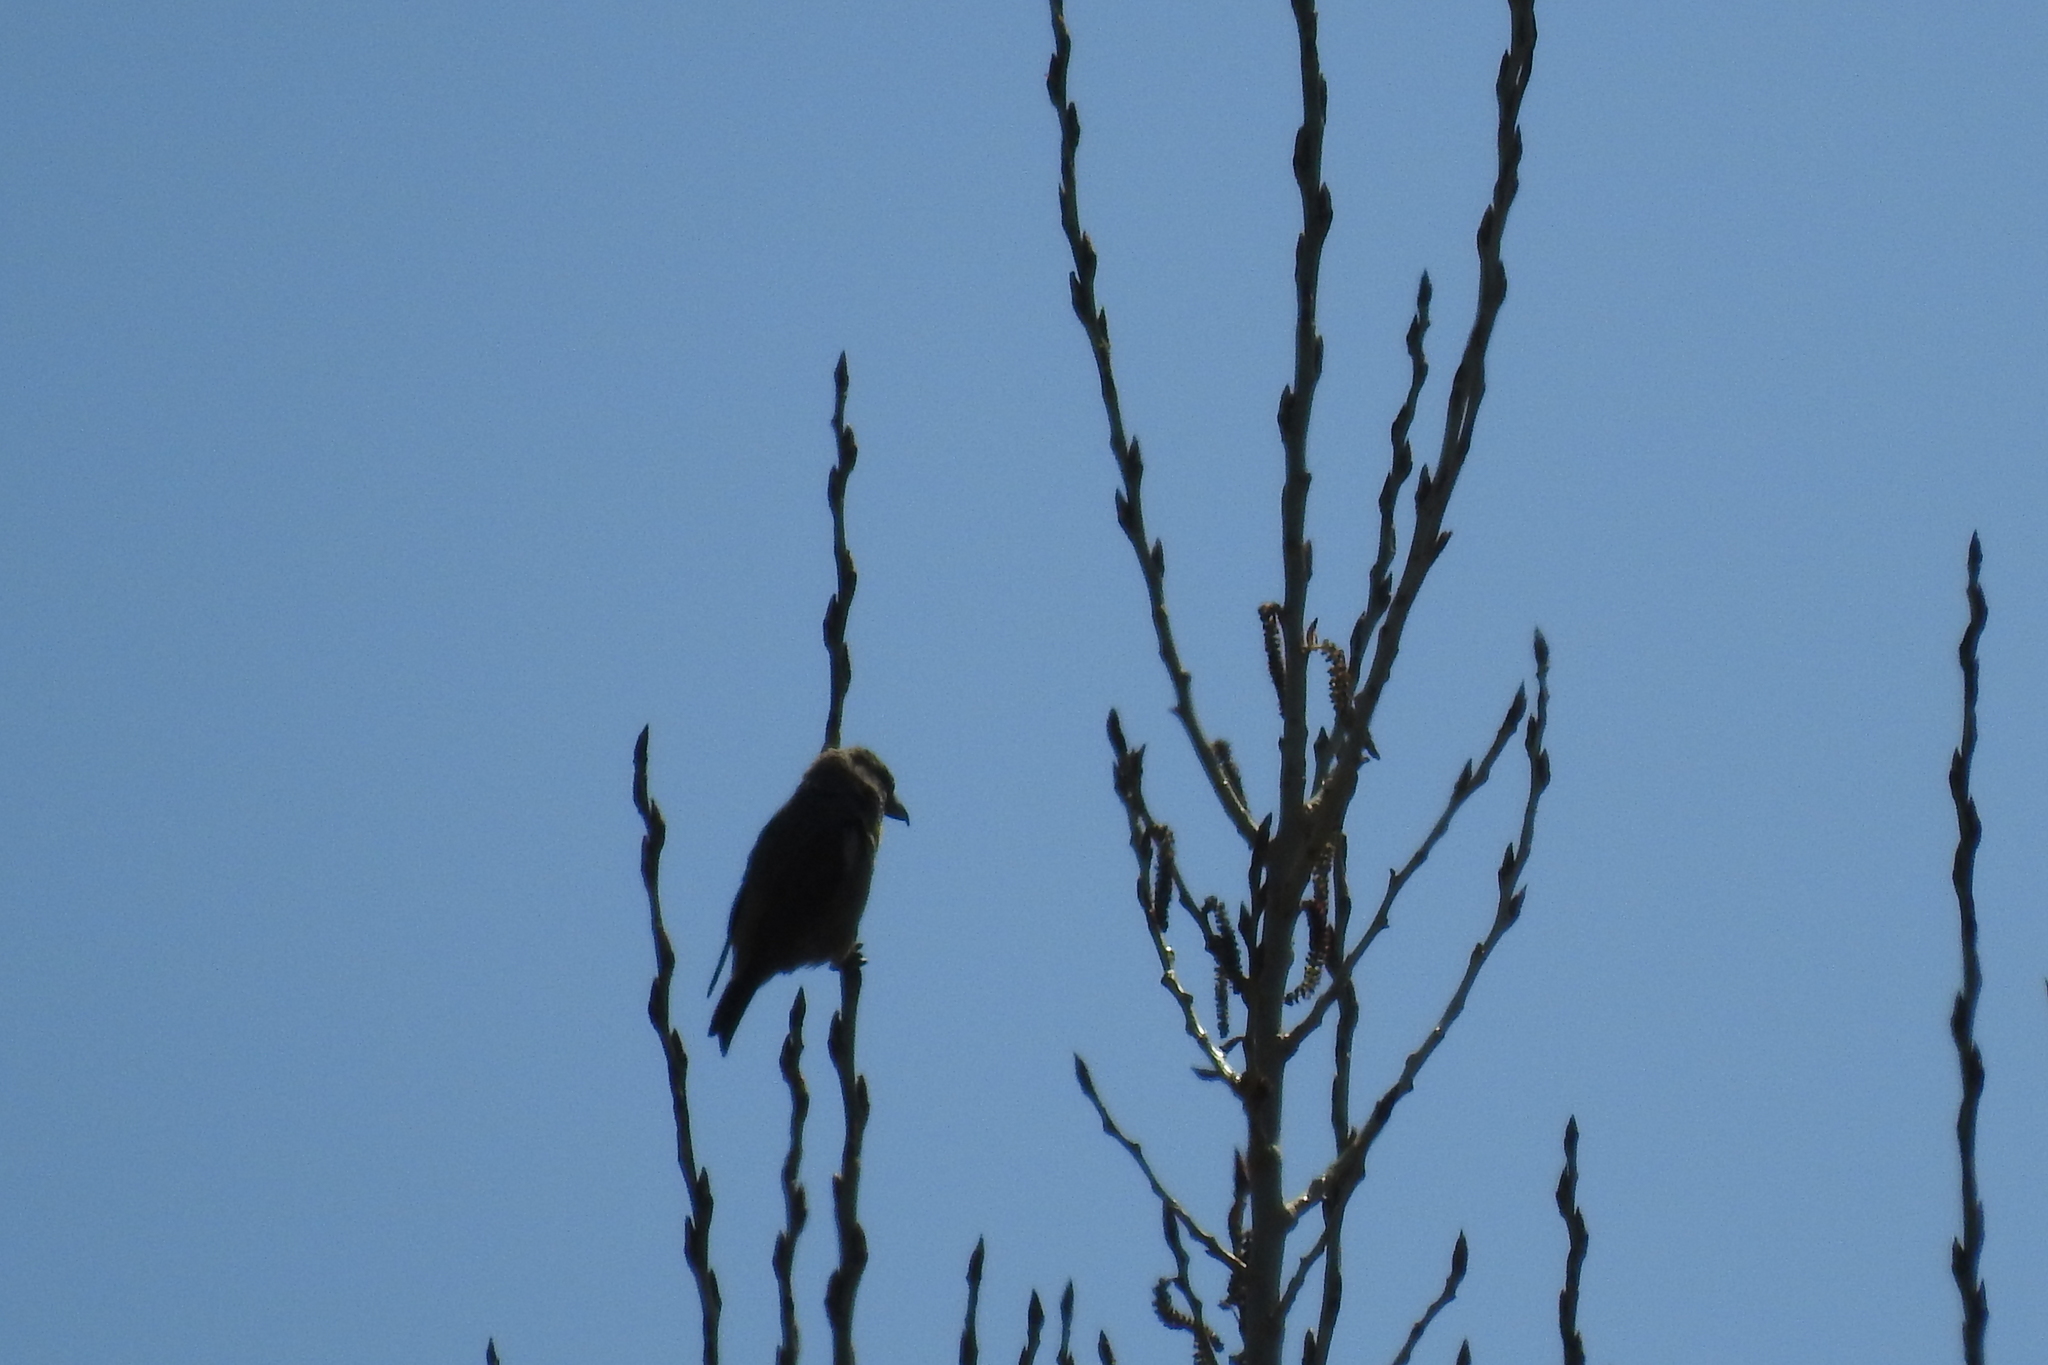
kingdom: Animalia
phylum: Chordata
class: Aves
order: Passeriformes
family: Fringillidae
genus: Loxia
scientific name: Loxia curvirostra
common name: Red crossbill
